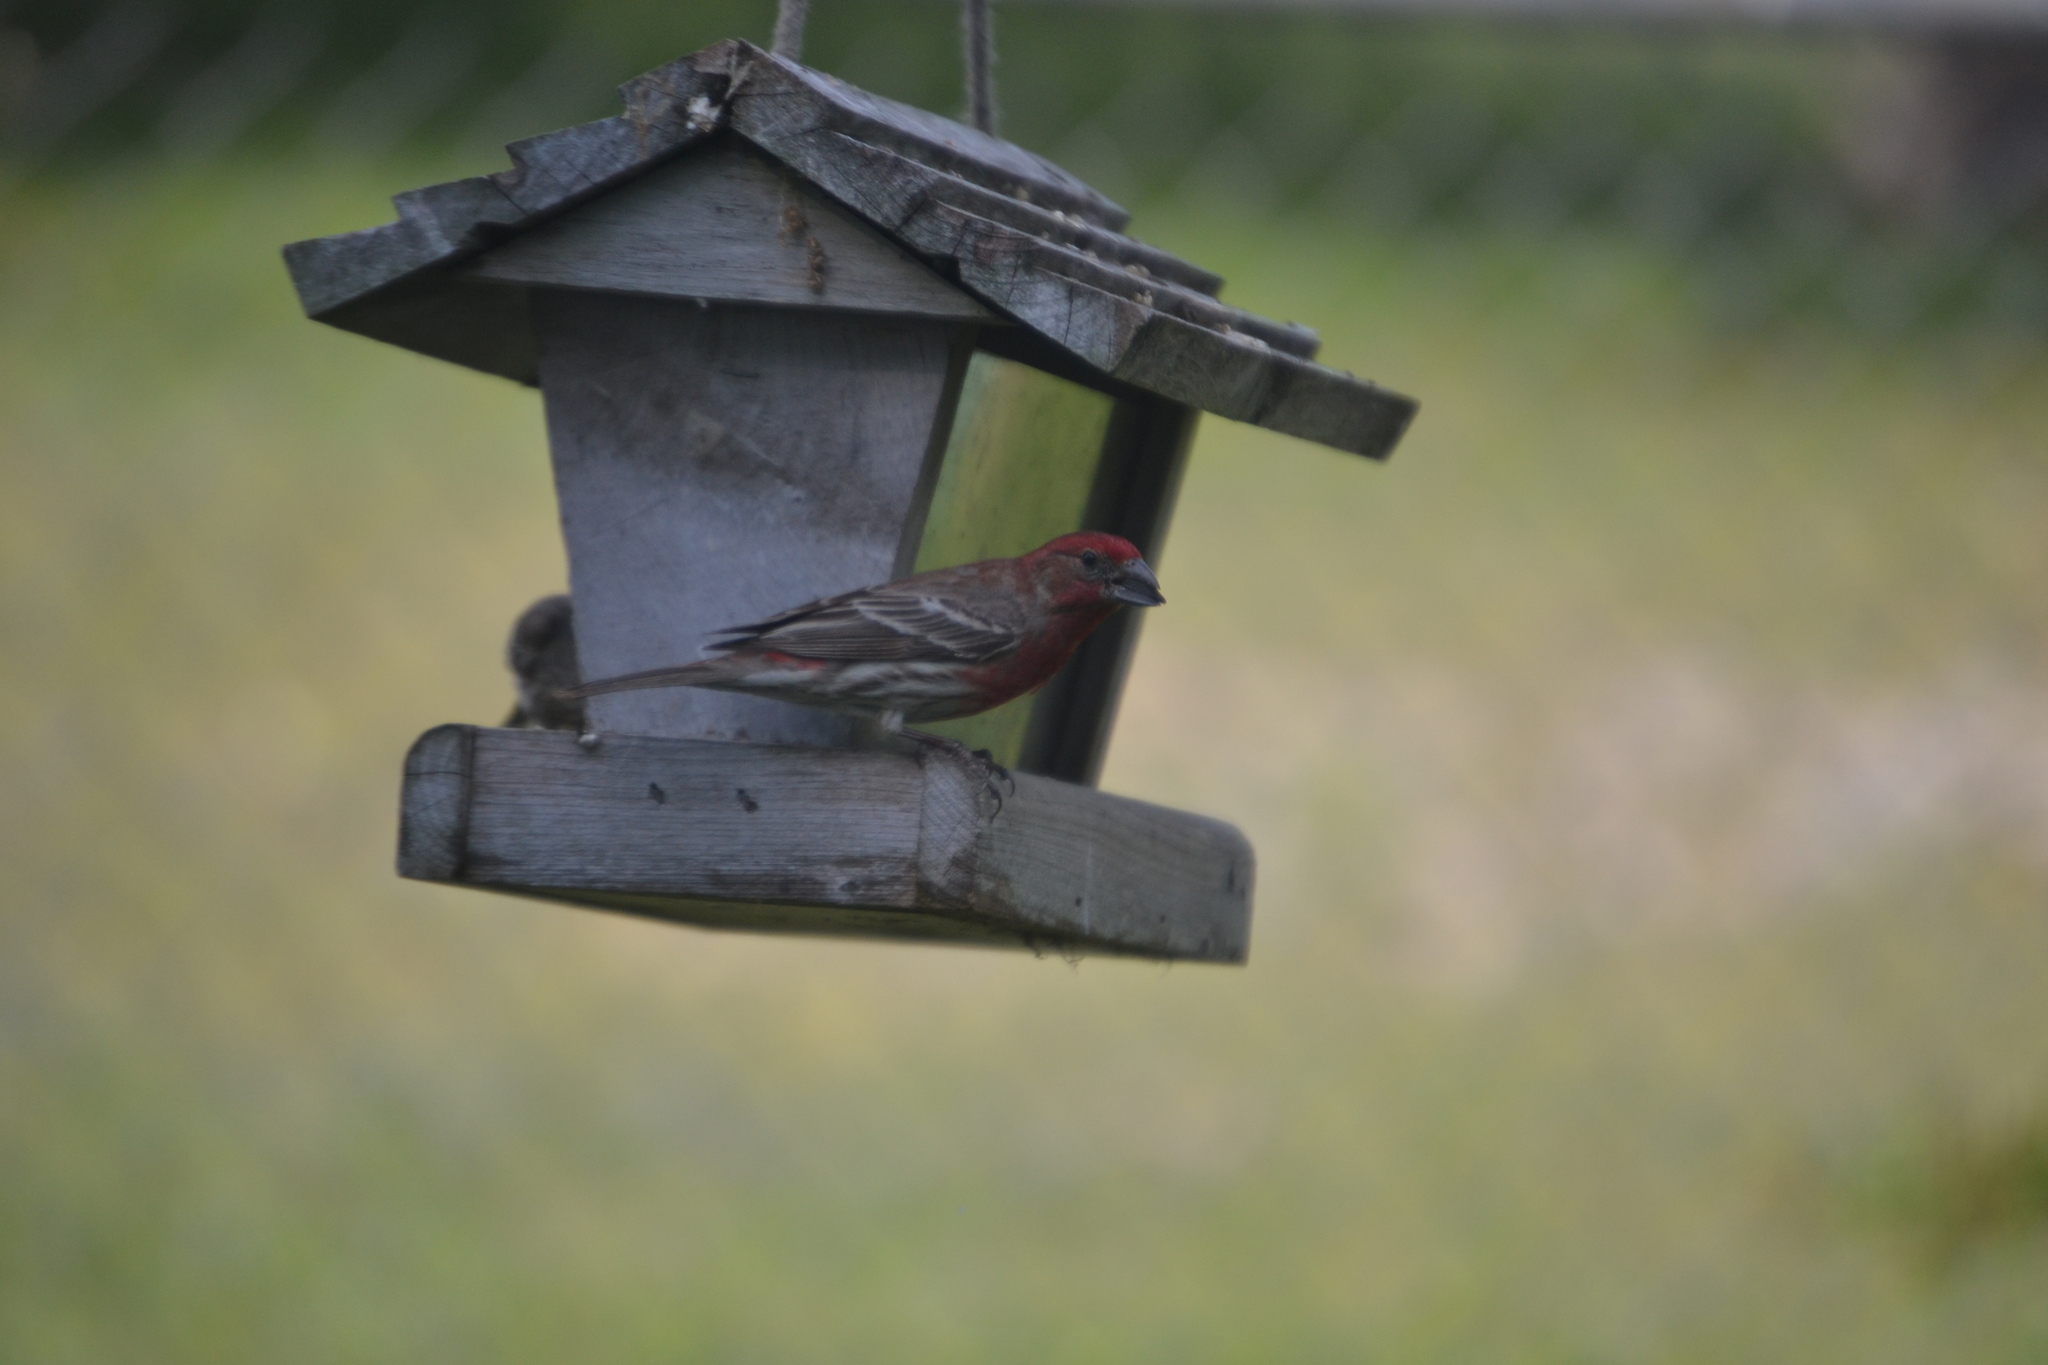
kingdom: Animalia
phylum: Chordata
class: Aves
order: Passeriformes
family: Fringillidae
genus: Haemorhous
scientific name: Haemorhous mexicanus
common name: House finch
